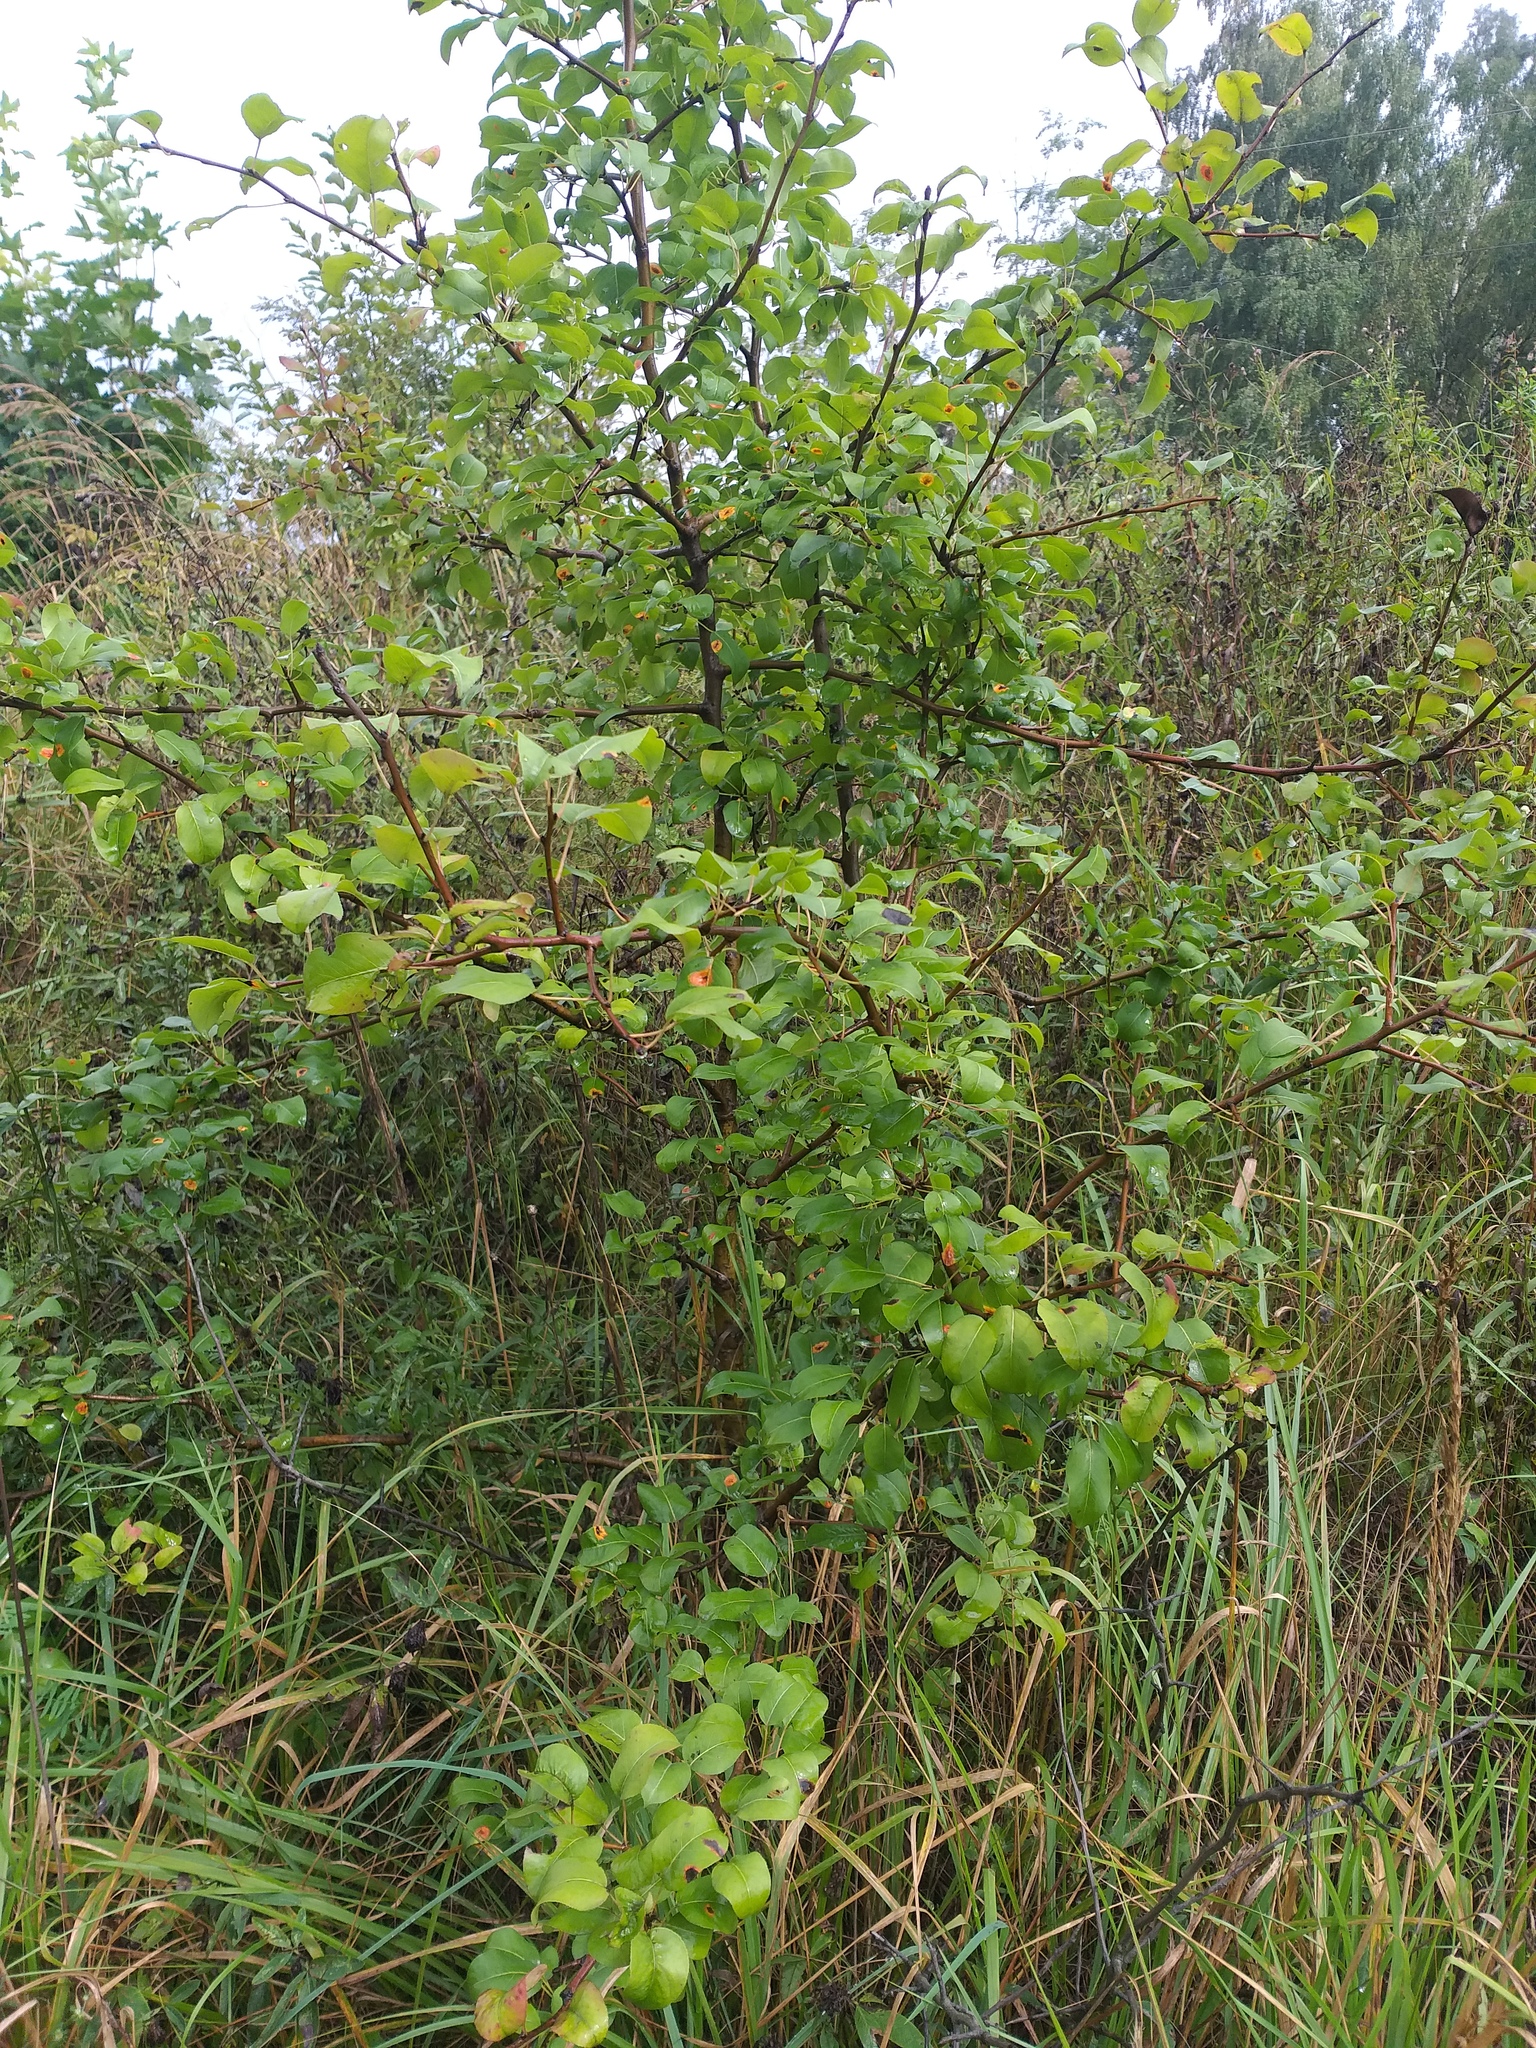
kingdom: Plantae
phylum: Tracheophyta
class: Magnoliopsida
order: Rosales
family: Rosaceae
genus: Pyrus
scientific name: Pyrus communis
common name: Pear
